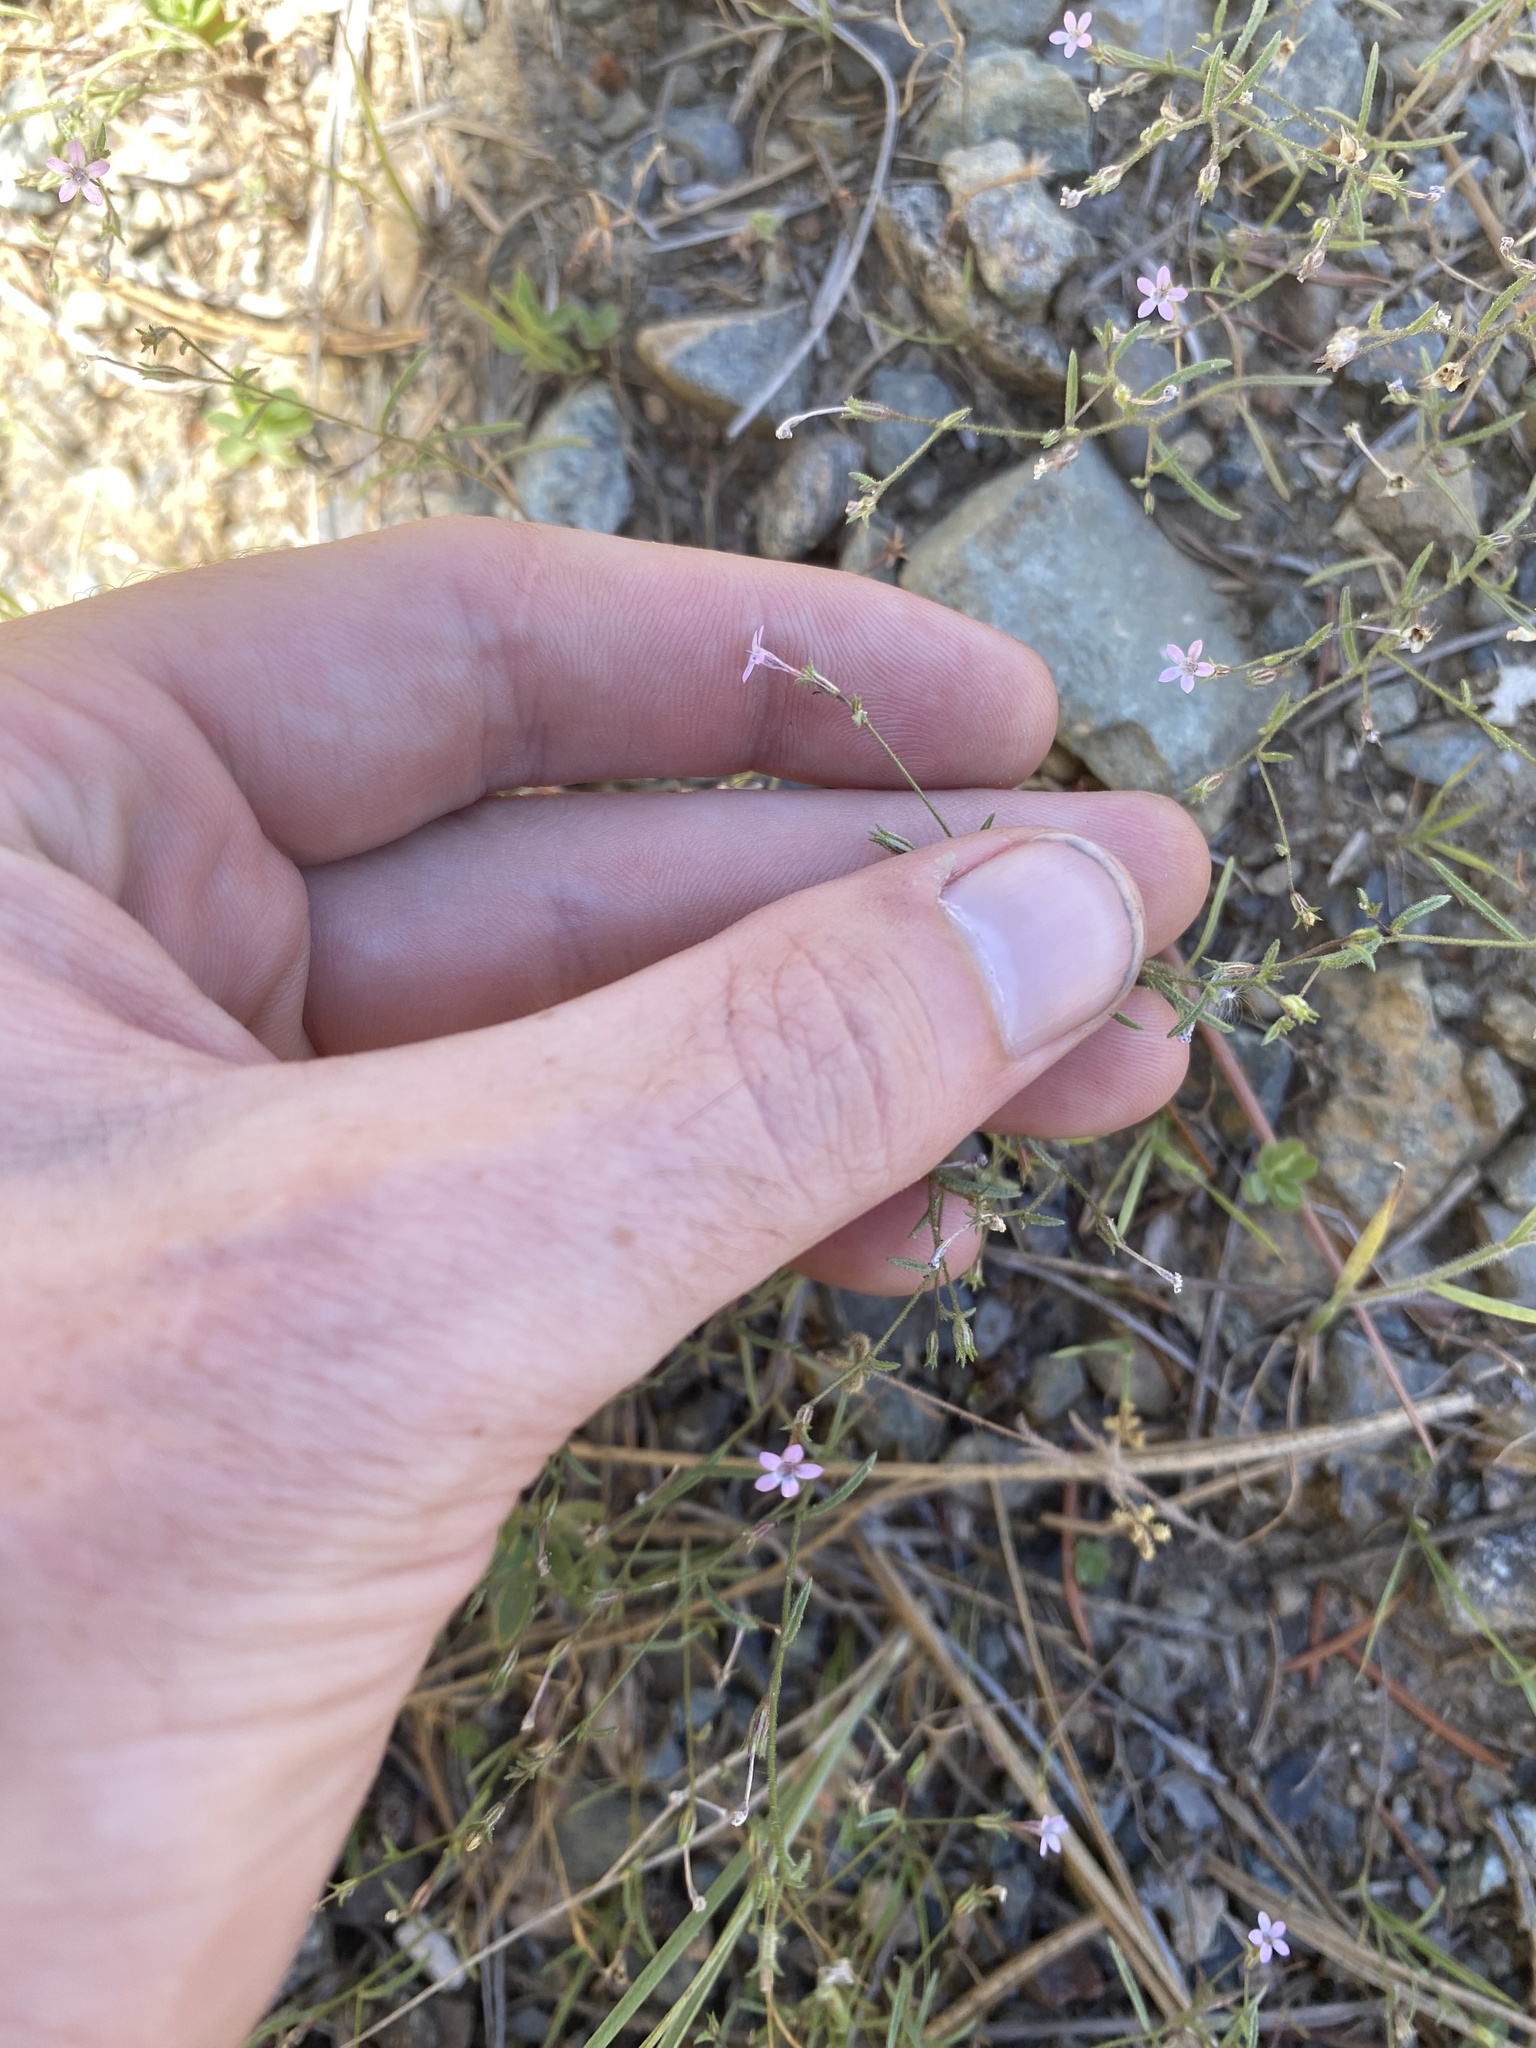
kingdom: Plantae
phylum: Tracheophyta
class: Magnoliopsida
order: Ericales
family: Polemoniaceae
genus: Navarretia
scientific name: Navarretia sinistra
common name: Alva day's pincushionplant
